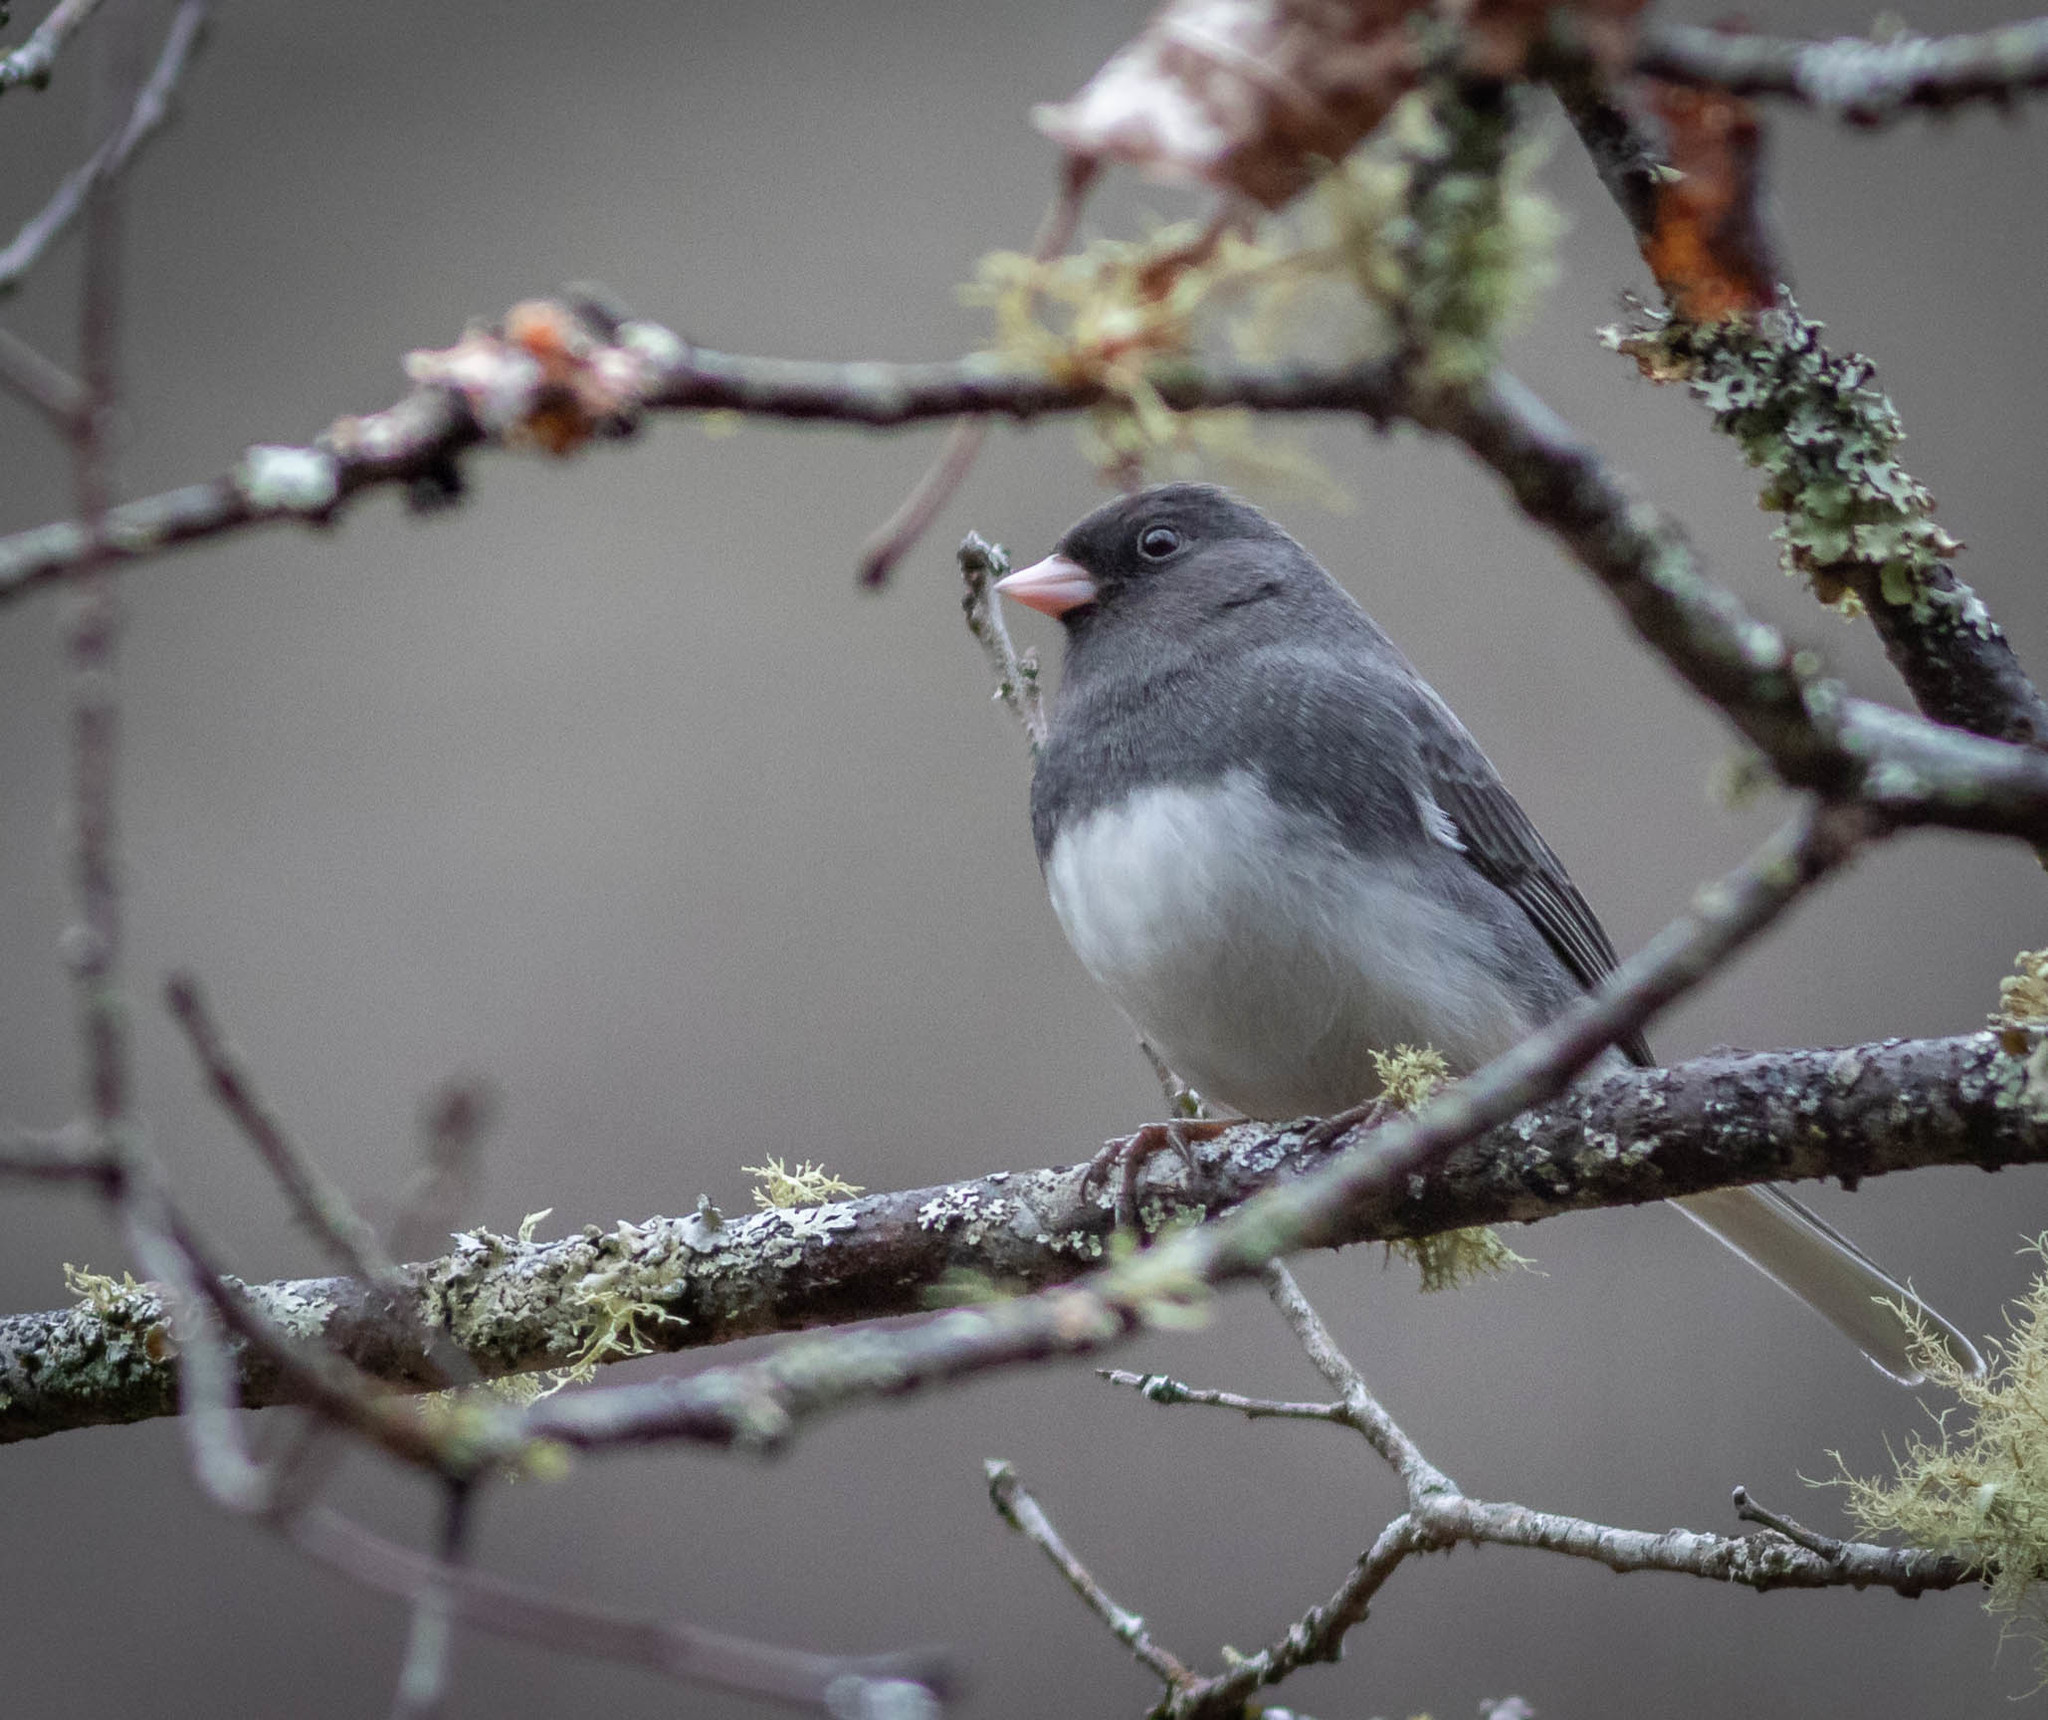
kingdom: Animalia
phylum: Chordata
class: Aves
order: Passeriformes
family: Passerellidae
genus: Junco
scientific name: Junco hyemalis
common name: Dark-eyed junco
